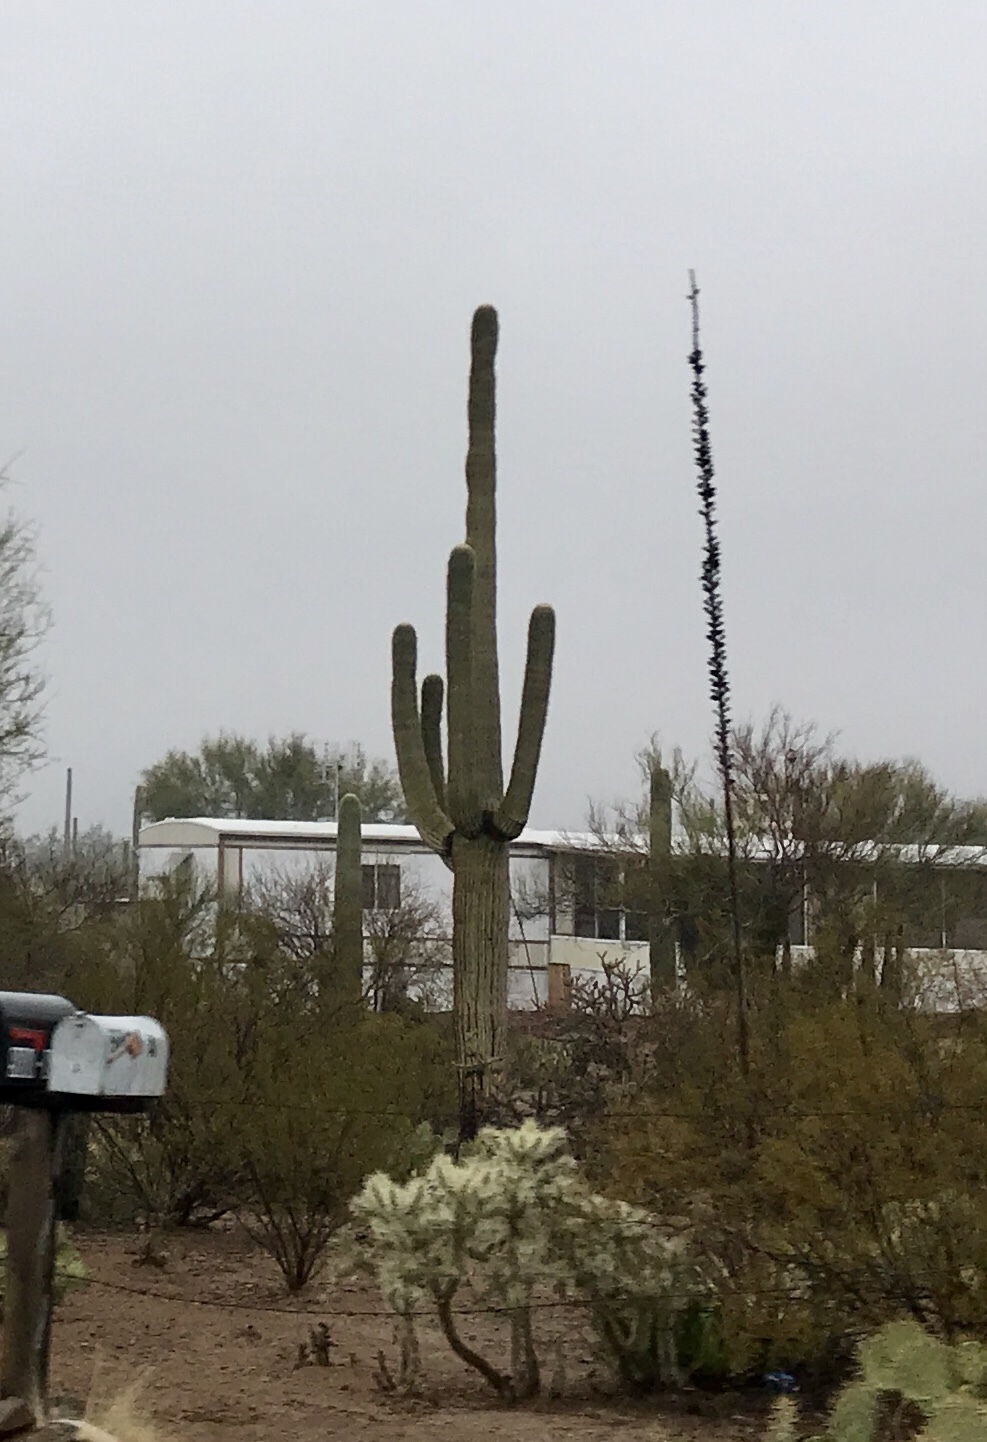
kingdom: Plantae
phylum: Tracheophyta
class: Magnoliopsida
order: Caryophyllales
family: Cactaceae
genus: Carnegiea
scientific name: Carnegiea gigantea
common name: Saguaro
